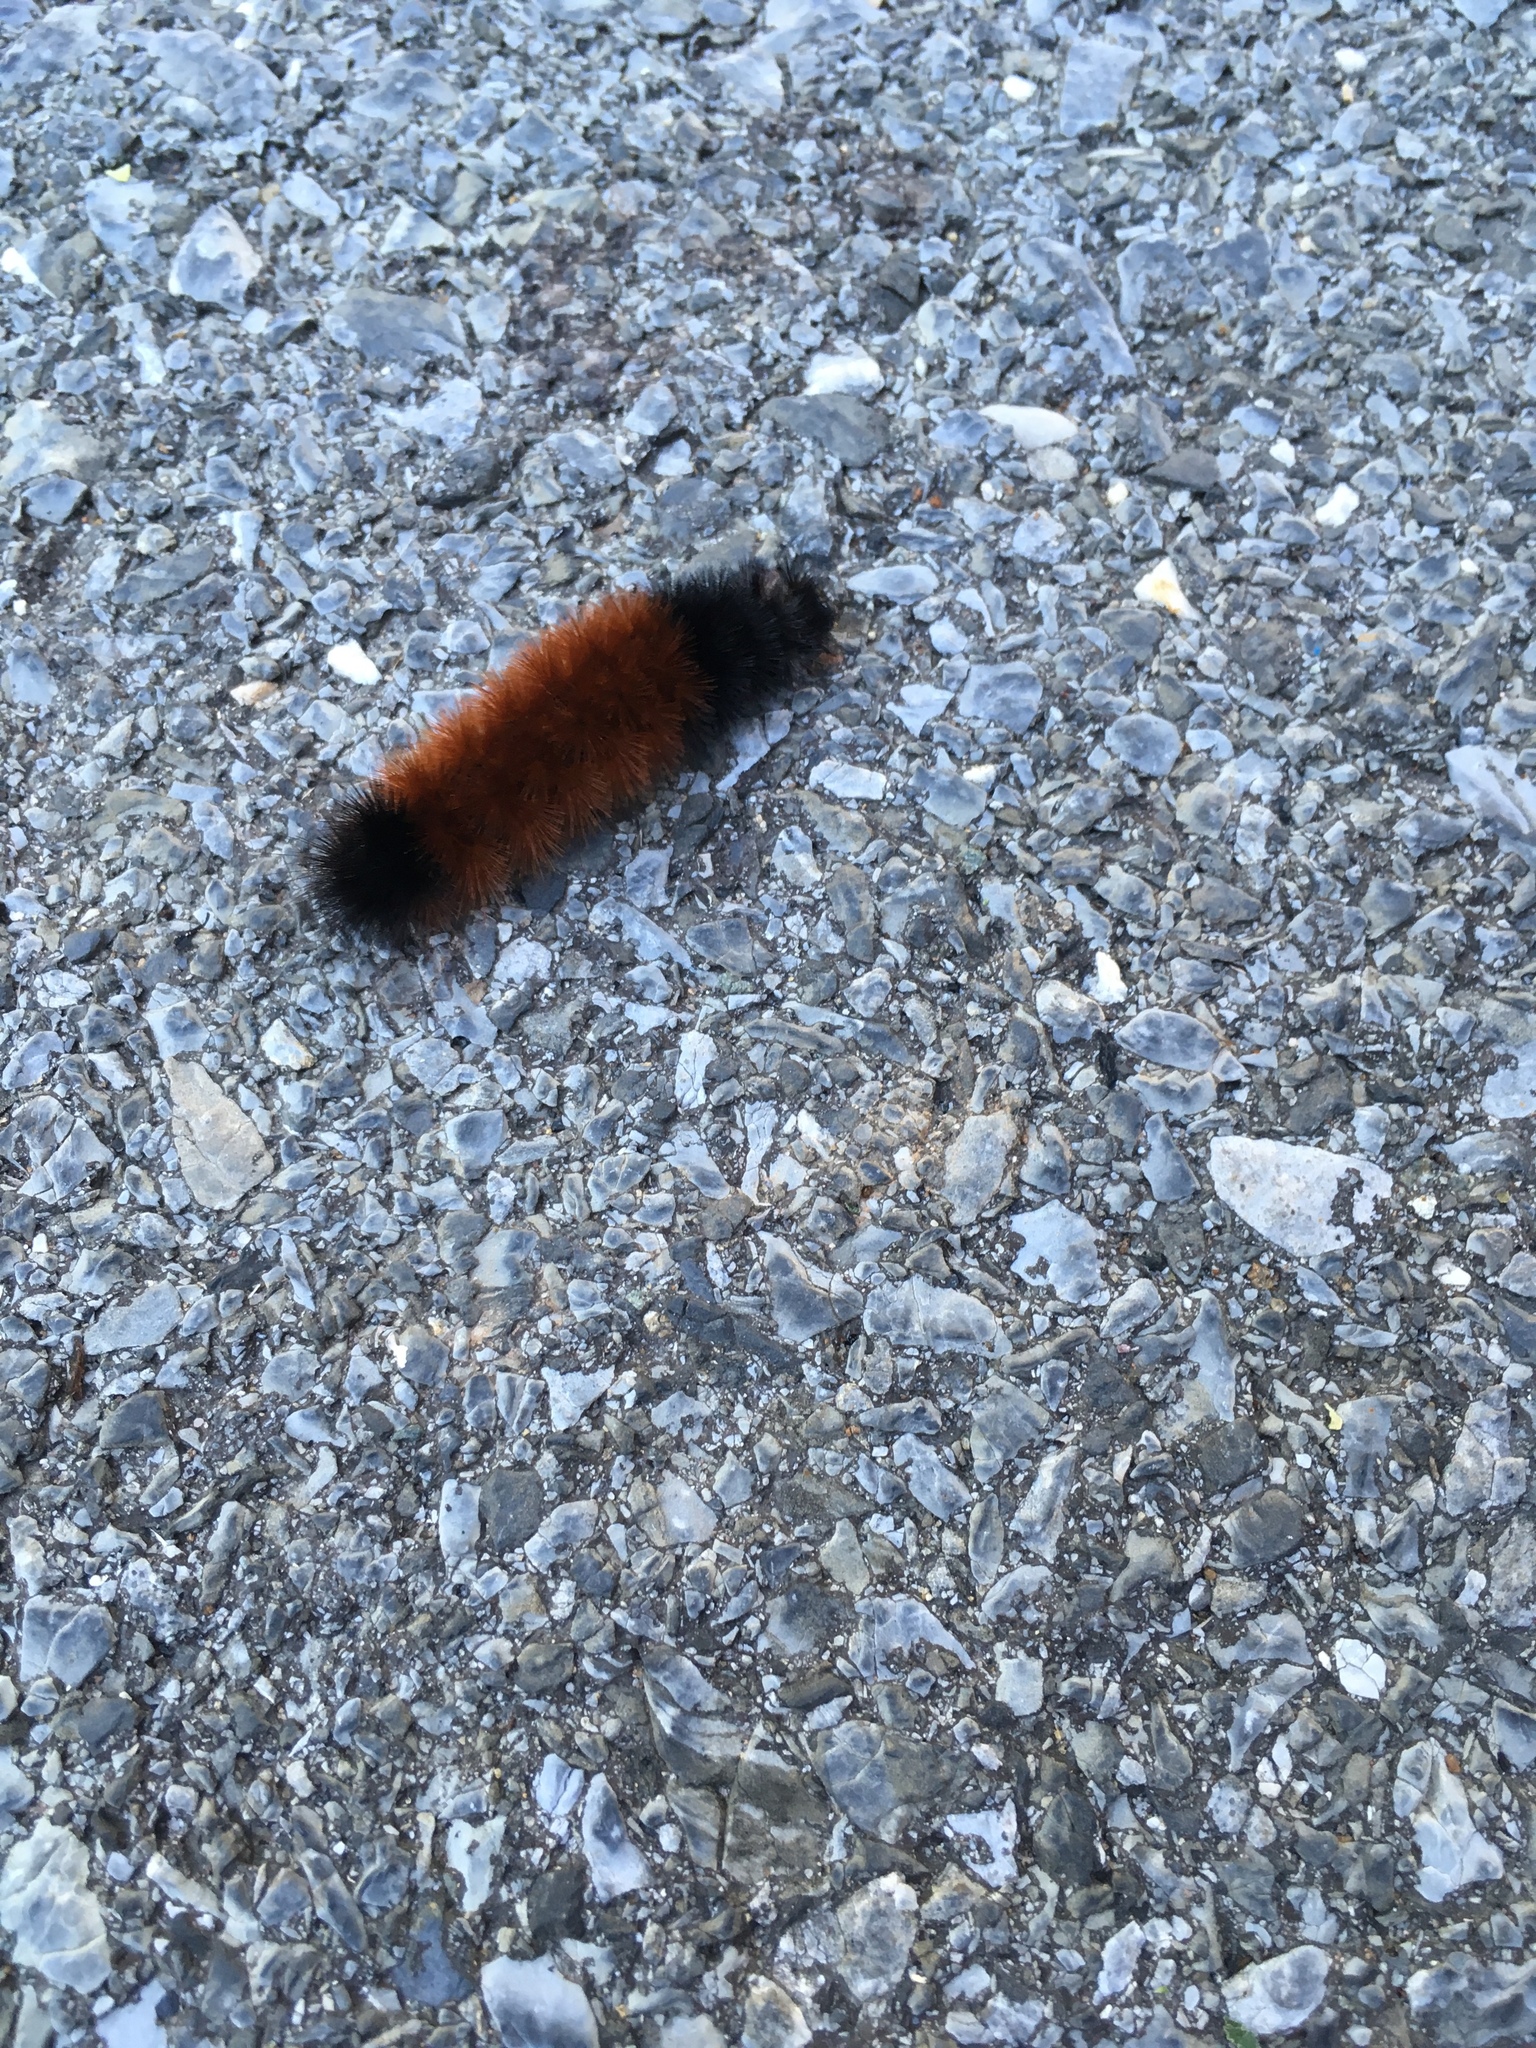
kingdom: Animalia
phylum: Arthropoda
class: Insecta
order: Lepidoptera
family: Erebidae
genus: Pyrrharctia
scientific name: Pyrrharctia isabella
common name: Isabella tiger moth
